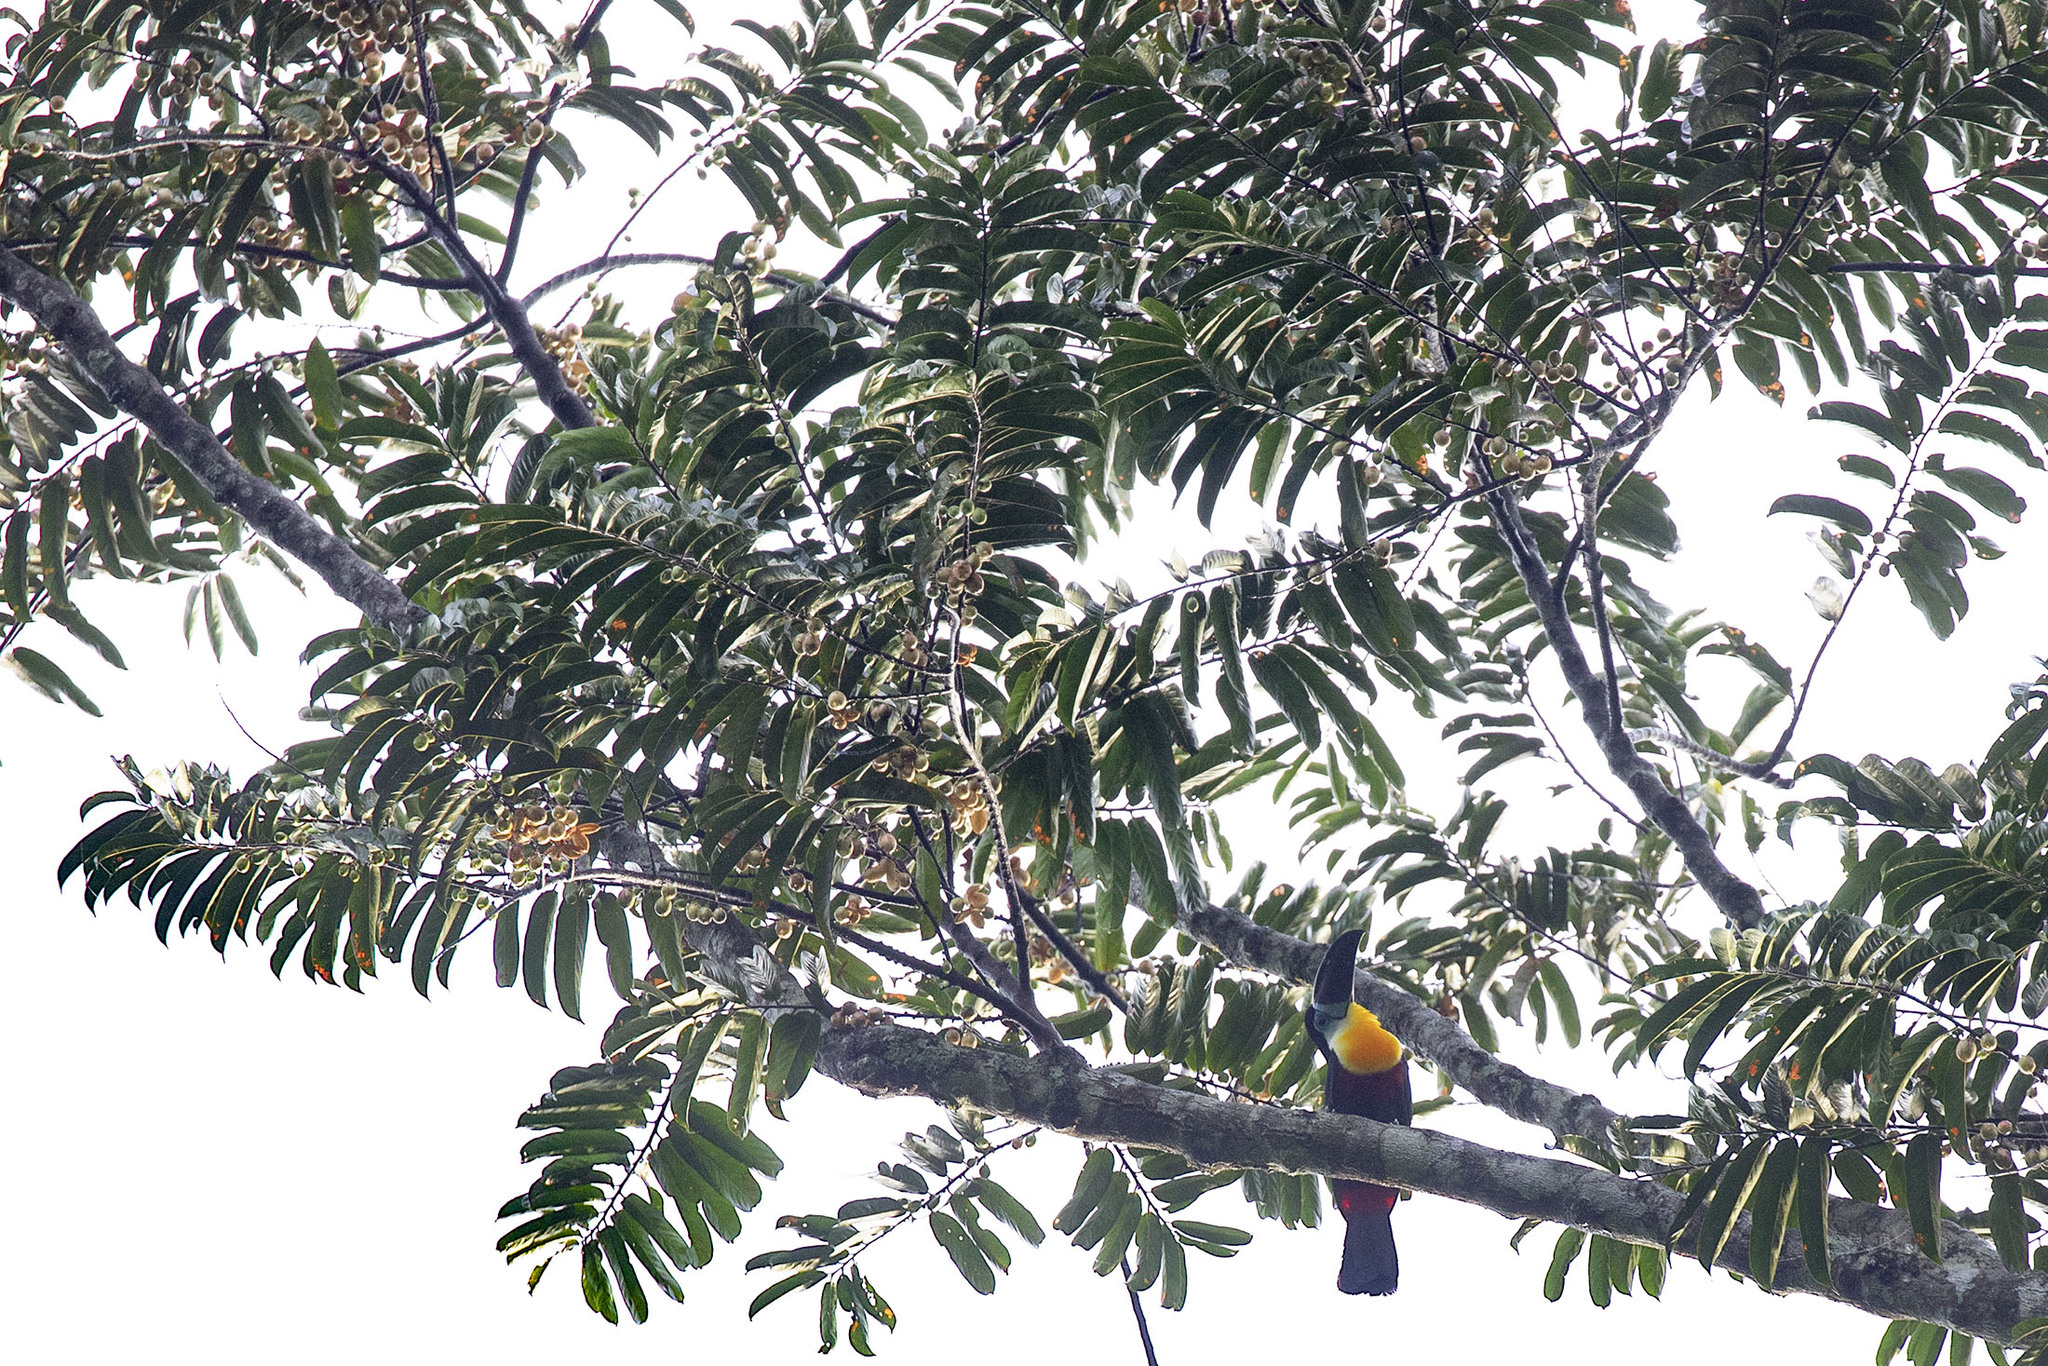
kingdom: Plantae
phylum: Tracheophyta
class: Magnoliopsida
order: Malpighiales
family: Salicaceae
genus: Casearia
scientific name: Casearia bicolor
